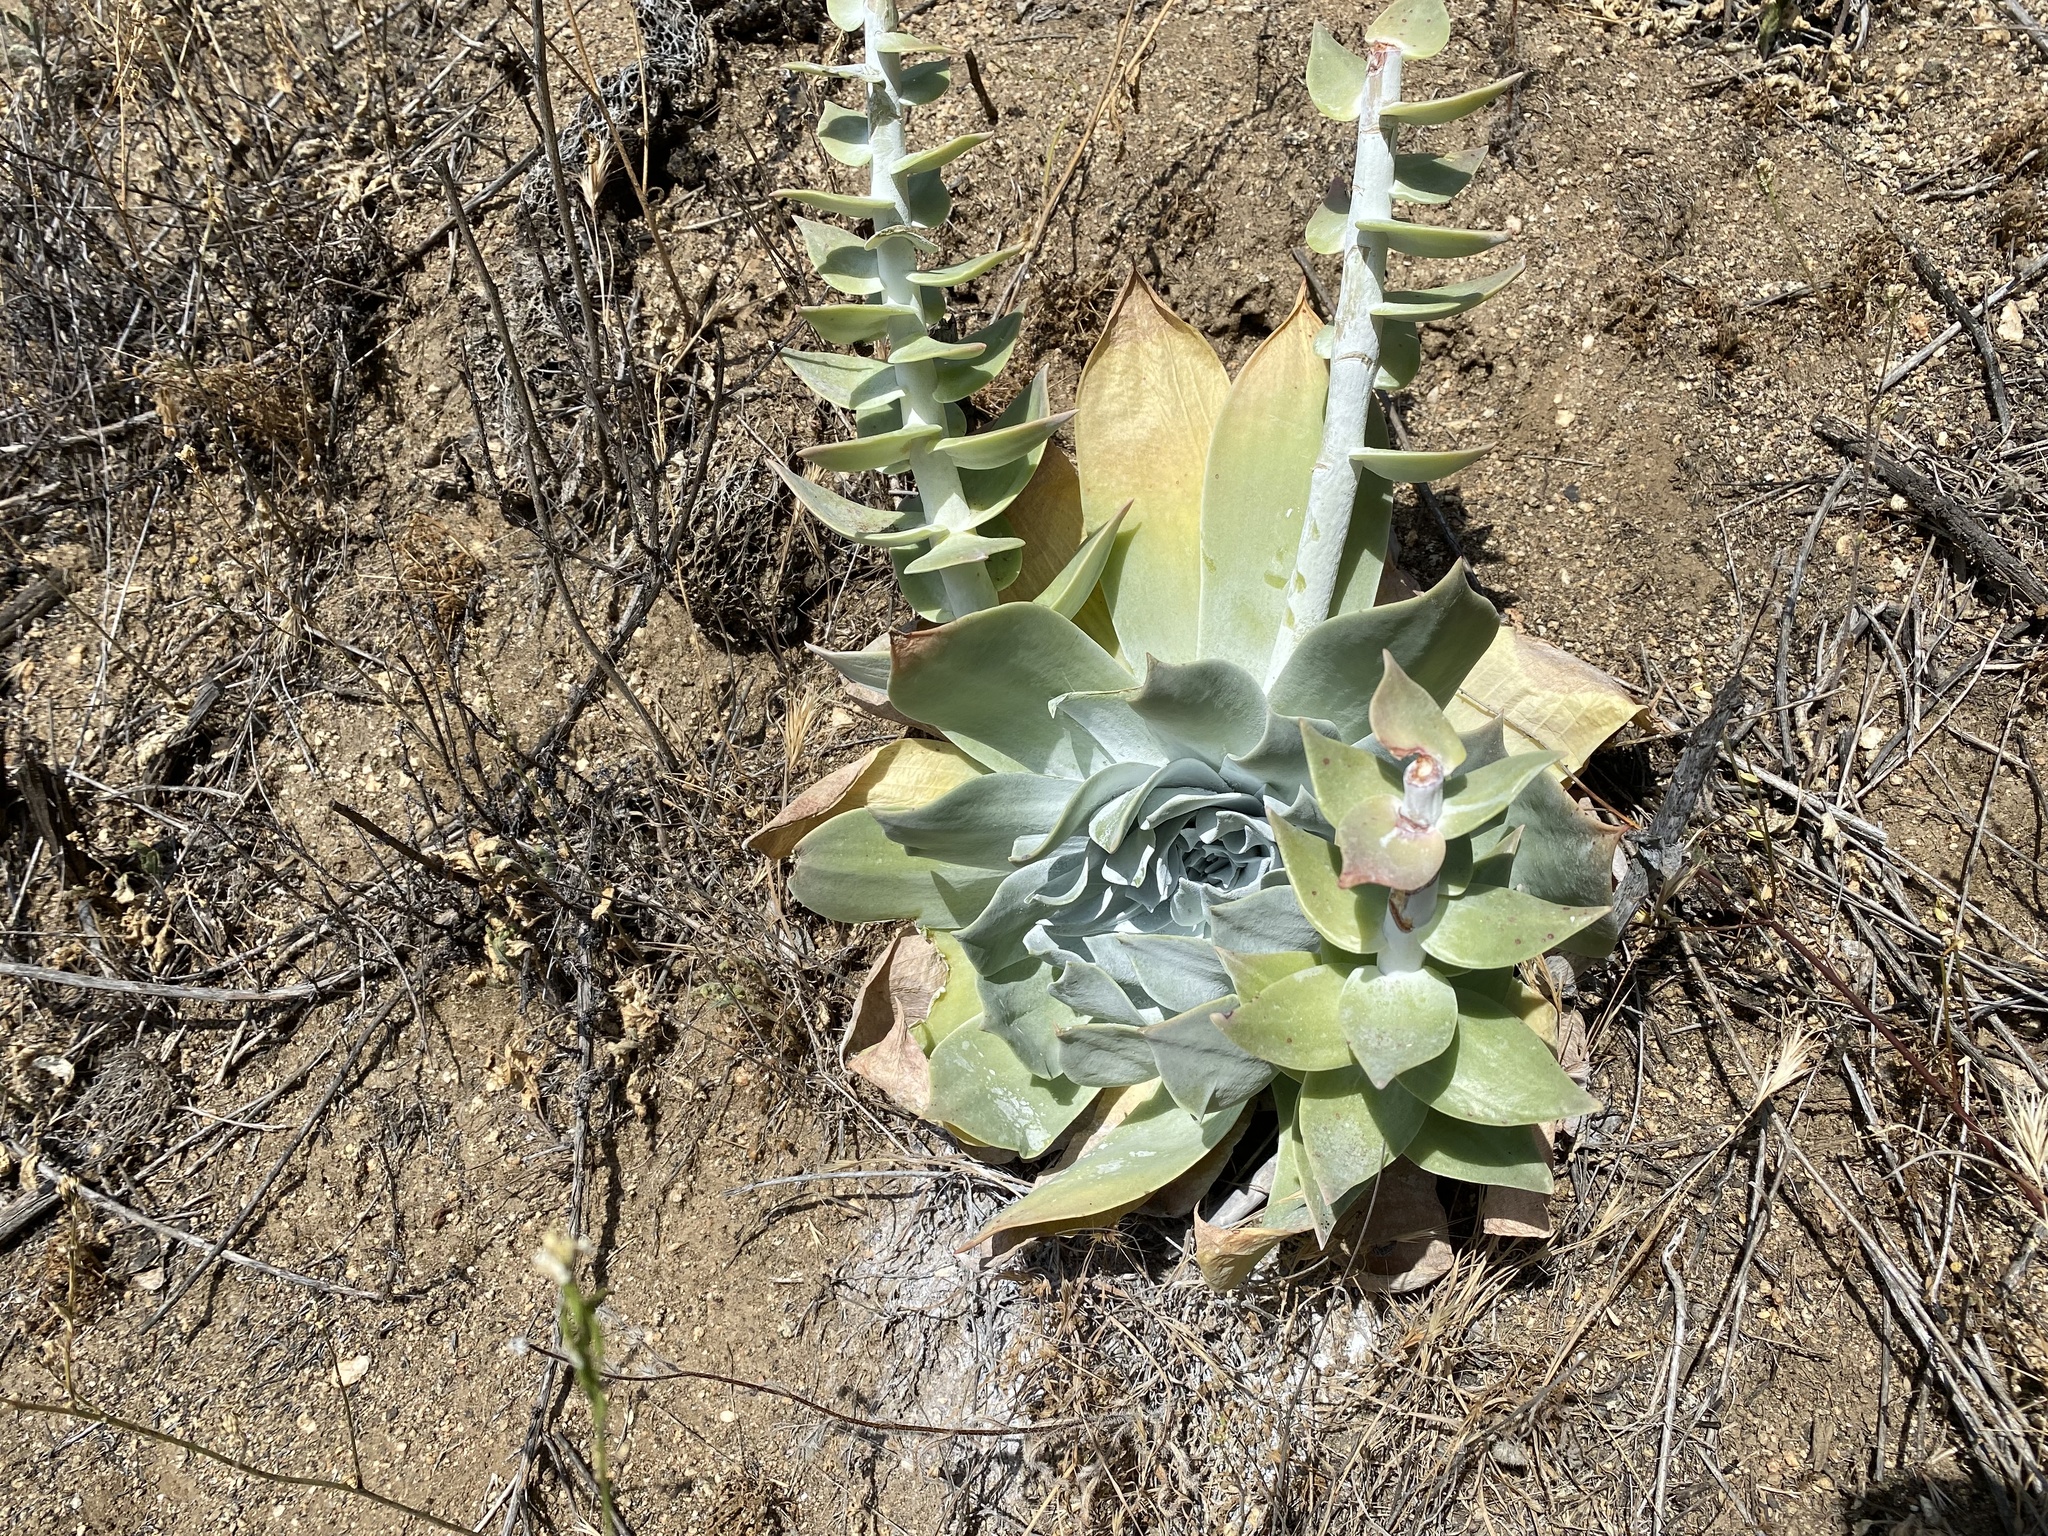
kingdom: Plantae
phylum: Tracheophyta
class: Magnoliopsida
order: Saxifragales
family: Crassulaceae
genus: Dudleya
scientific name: Dudleya pulverulenta
